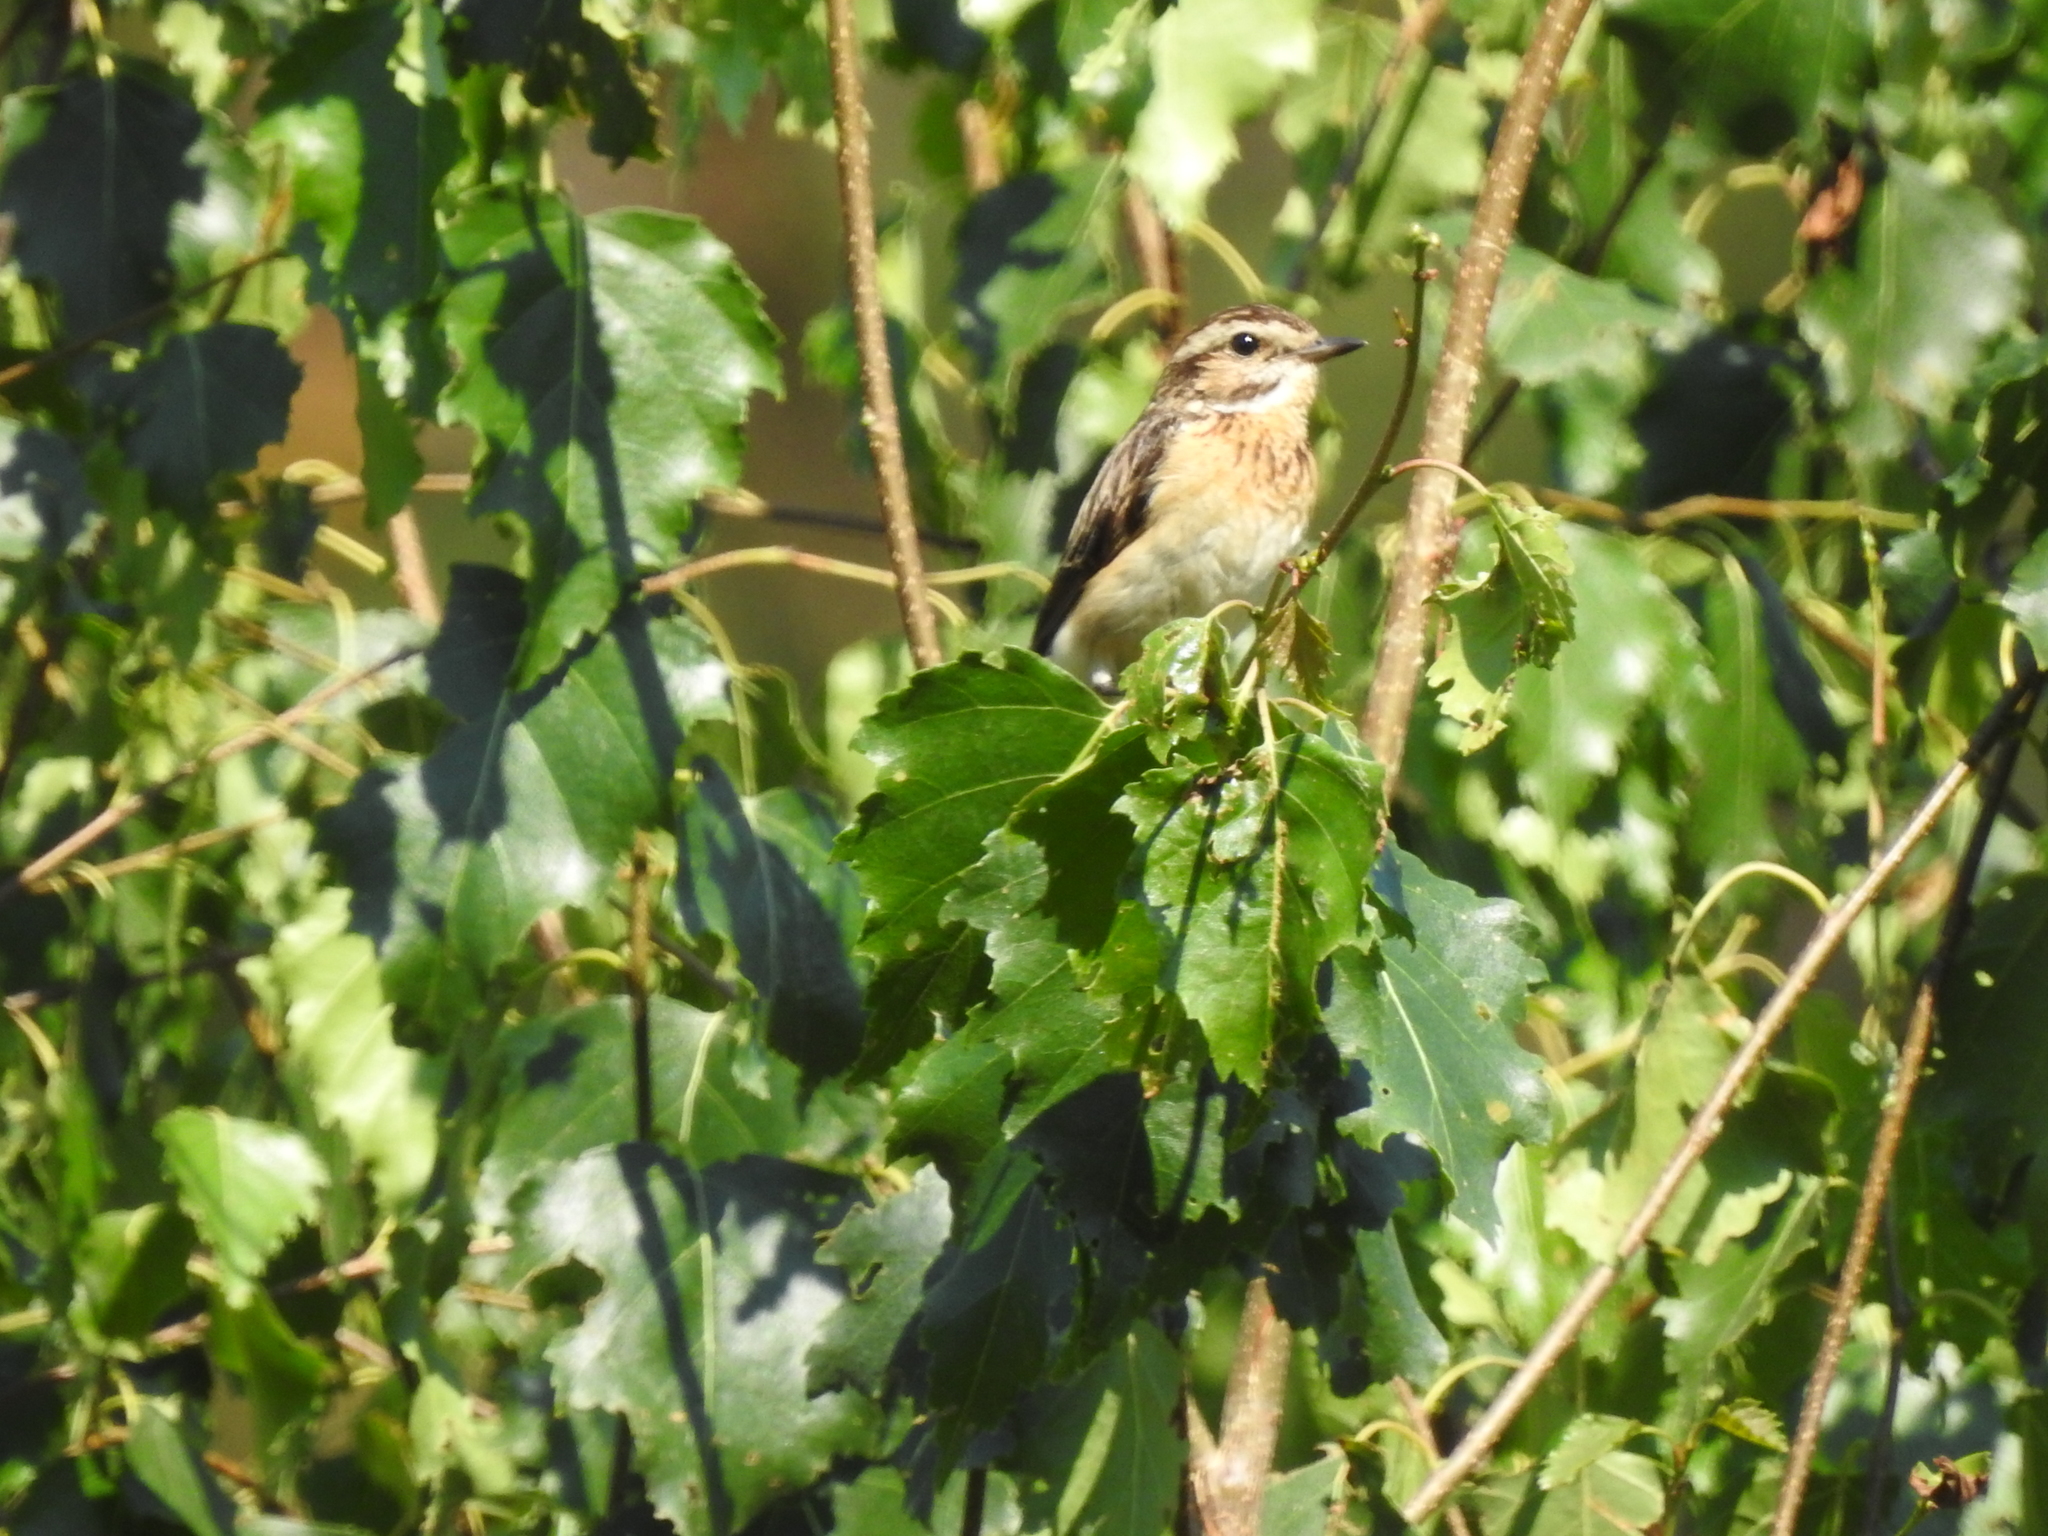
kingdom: Animalia
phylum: Chordata
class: Aves
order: Passeriformes
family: Muscicapidae
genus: Saxicola
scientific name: Saxicola rubetra
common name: Whinchat
